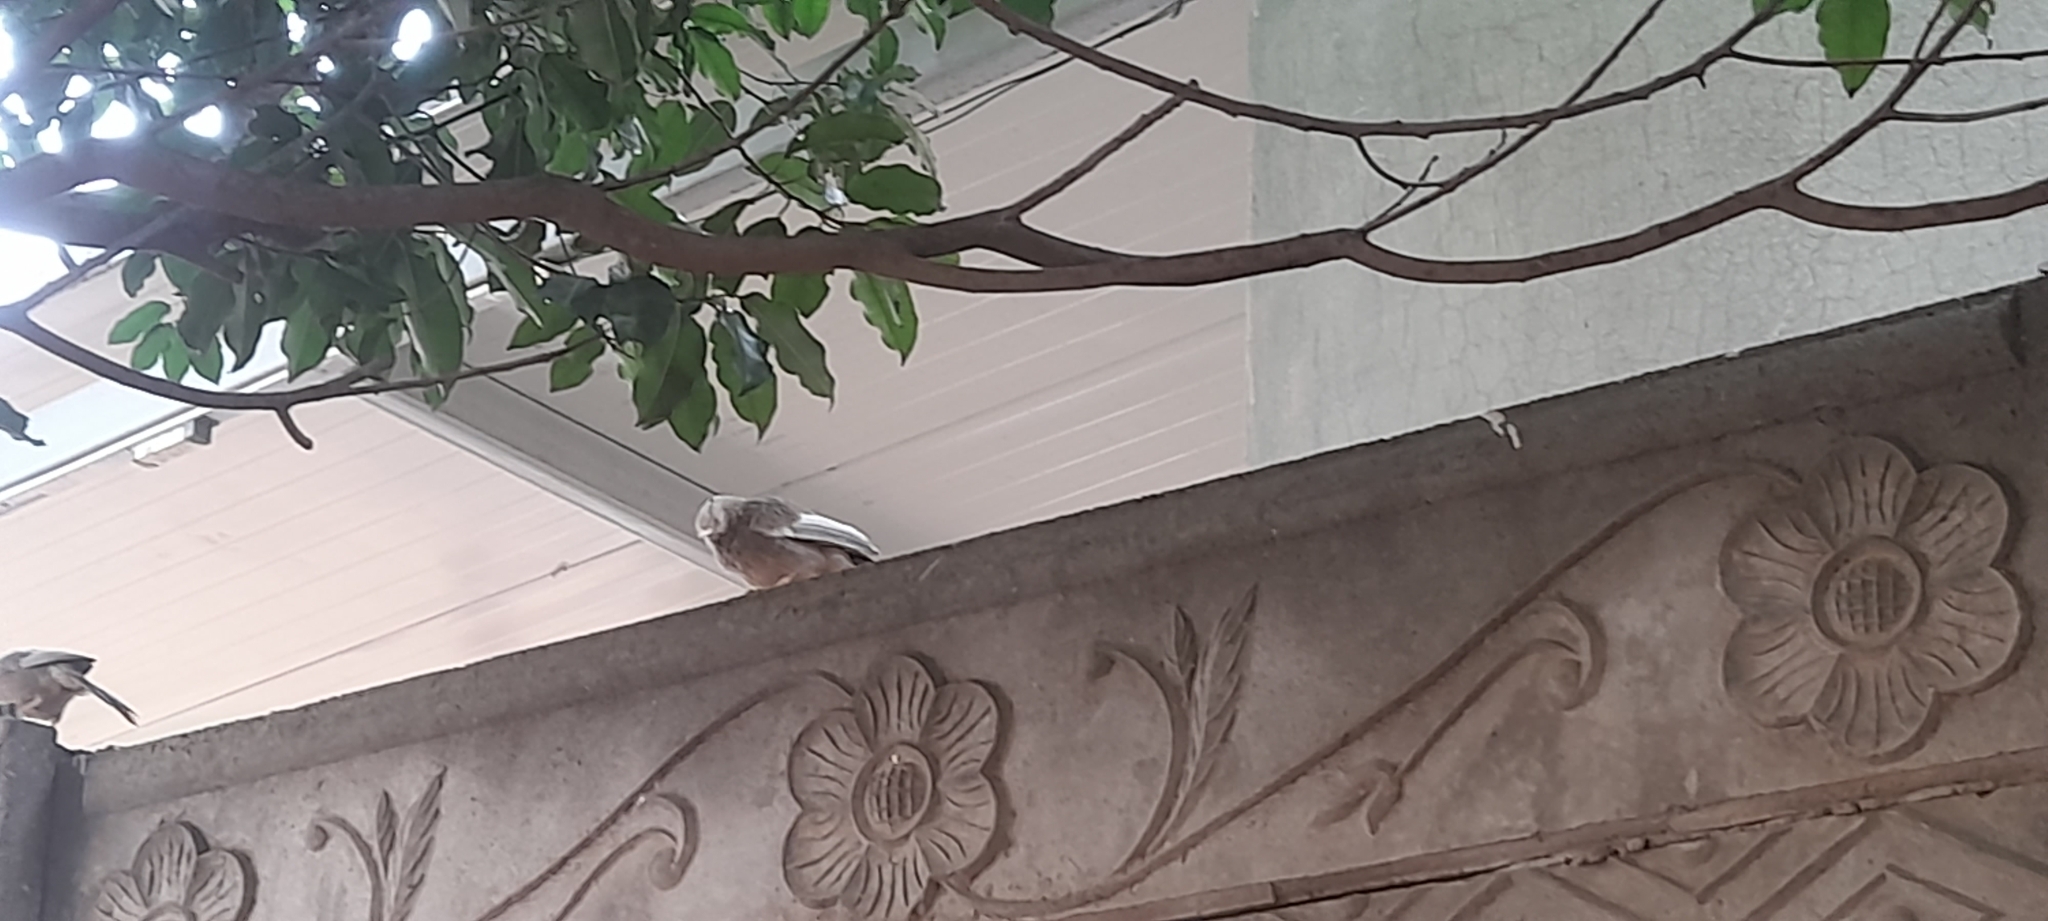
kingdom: Animalia
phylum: Chordata
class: Aves
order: Passeriformes
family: Leiothrichidae
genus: Turdoides
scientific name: Turdoides affinis
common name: Yellow-billed babbler
